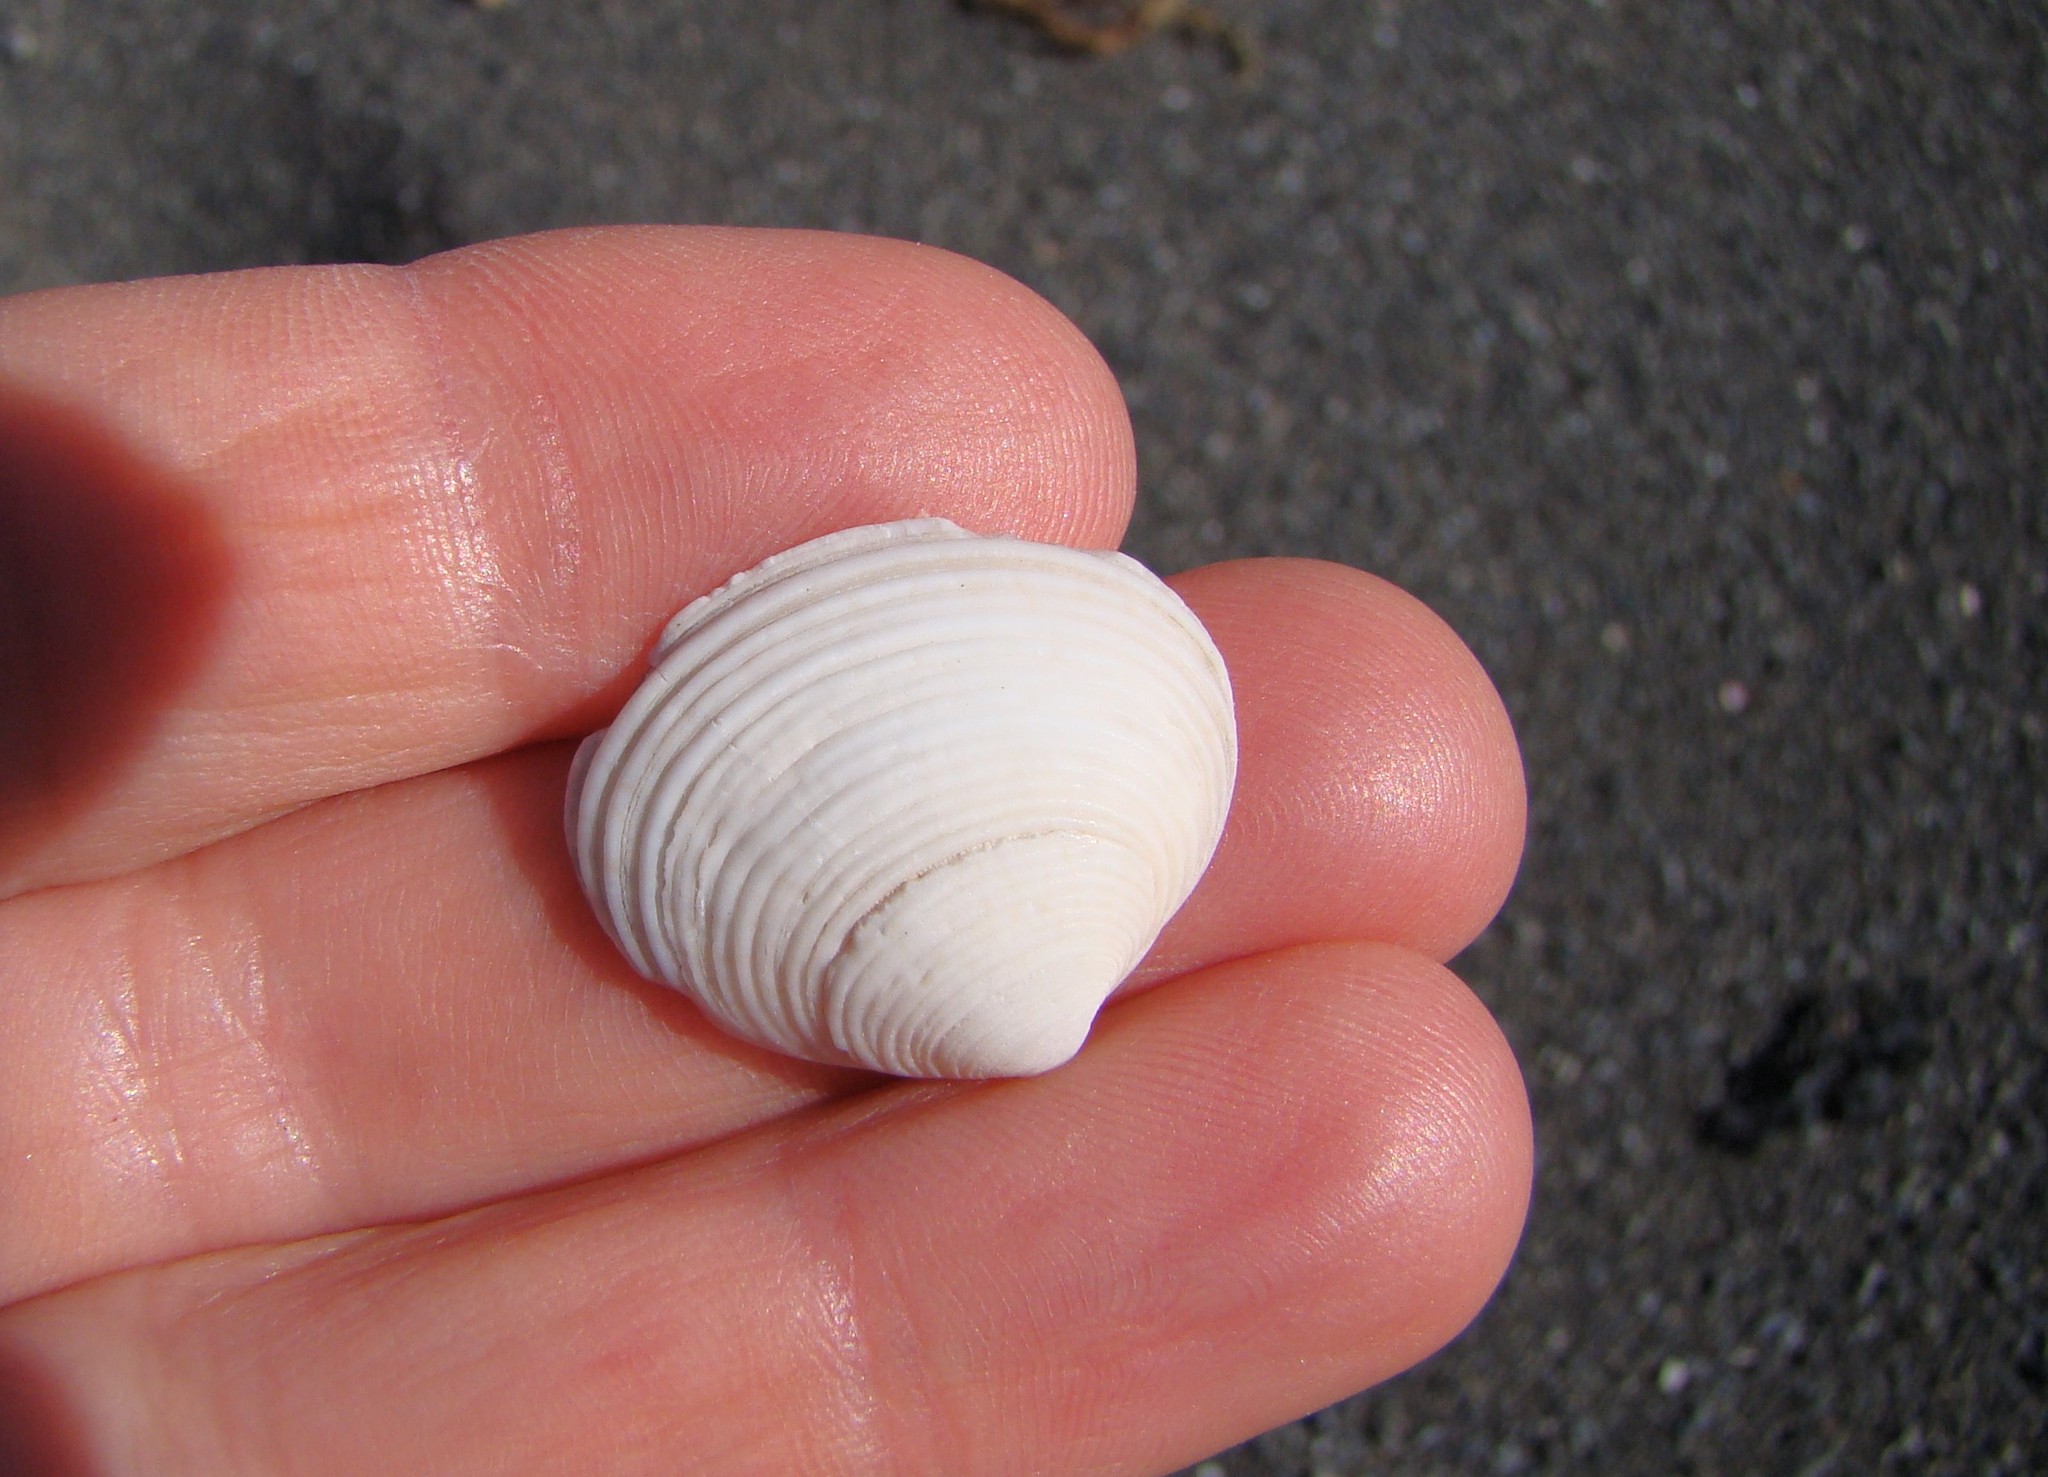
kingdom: Animalia
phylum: Mollusca
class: Bivalvia
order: Venerida
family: Veneridae
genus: Tawera
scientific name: Tawera spissa
